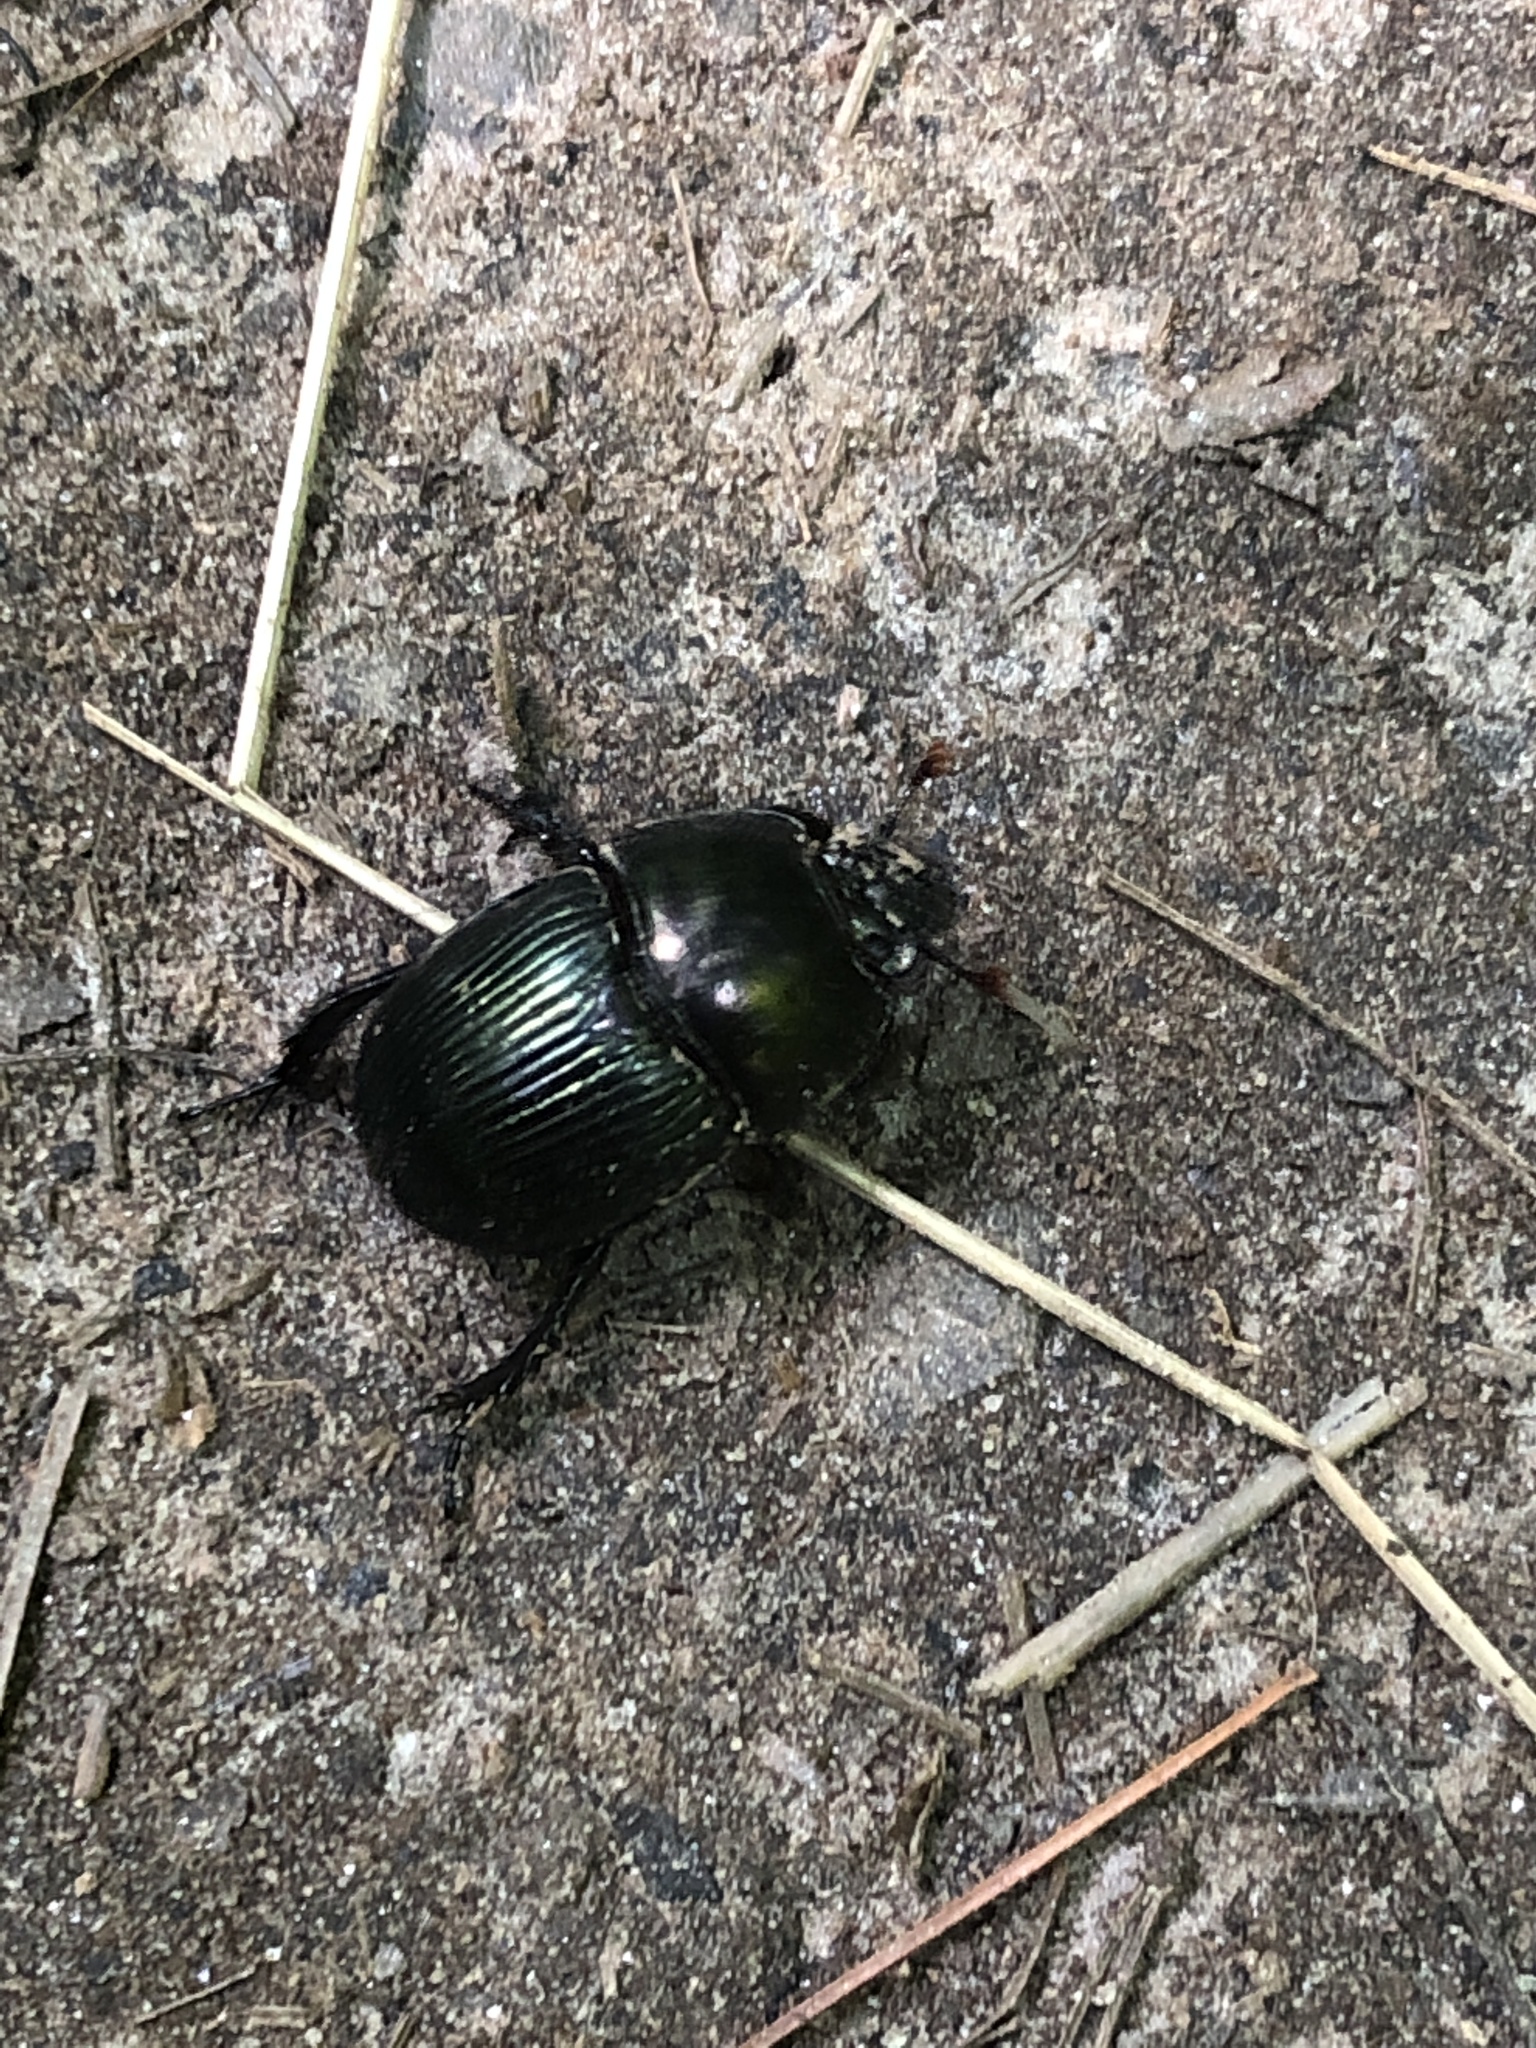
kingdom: Animalia
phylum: Arthropoda
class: Insecta
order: Coleoptera
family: Geotrupidae
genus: Geotrupes
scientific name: Geotrupes splendidus
